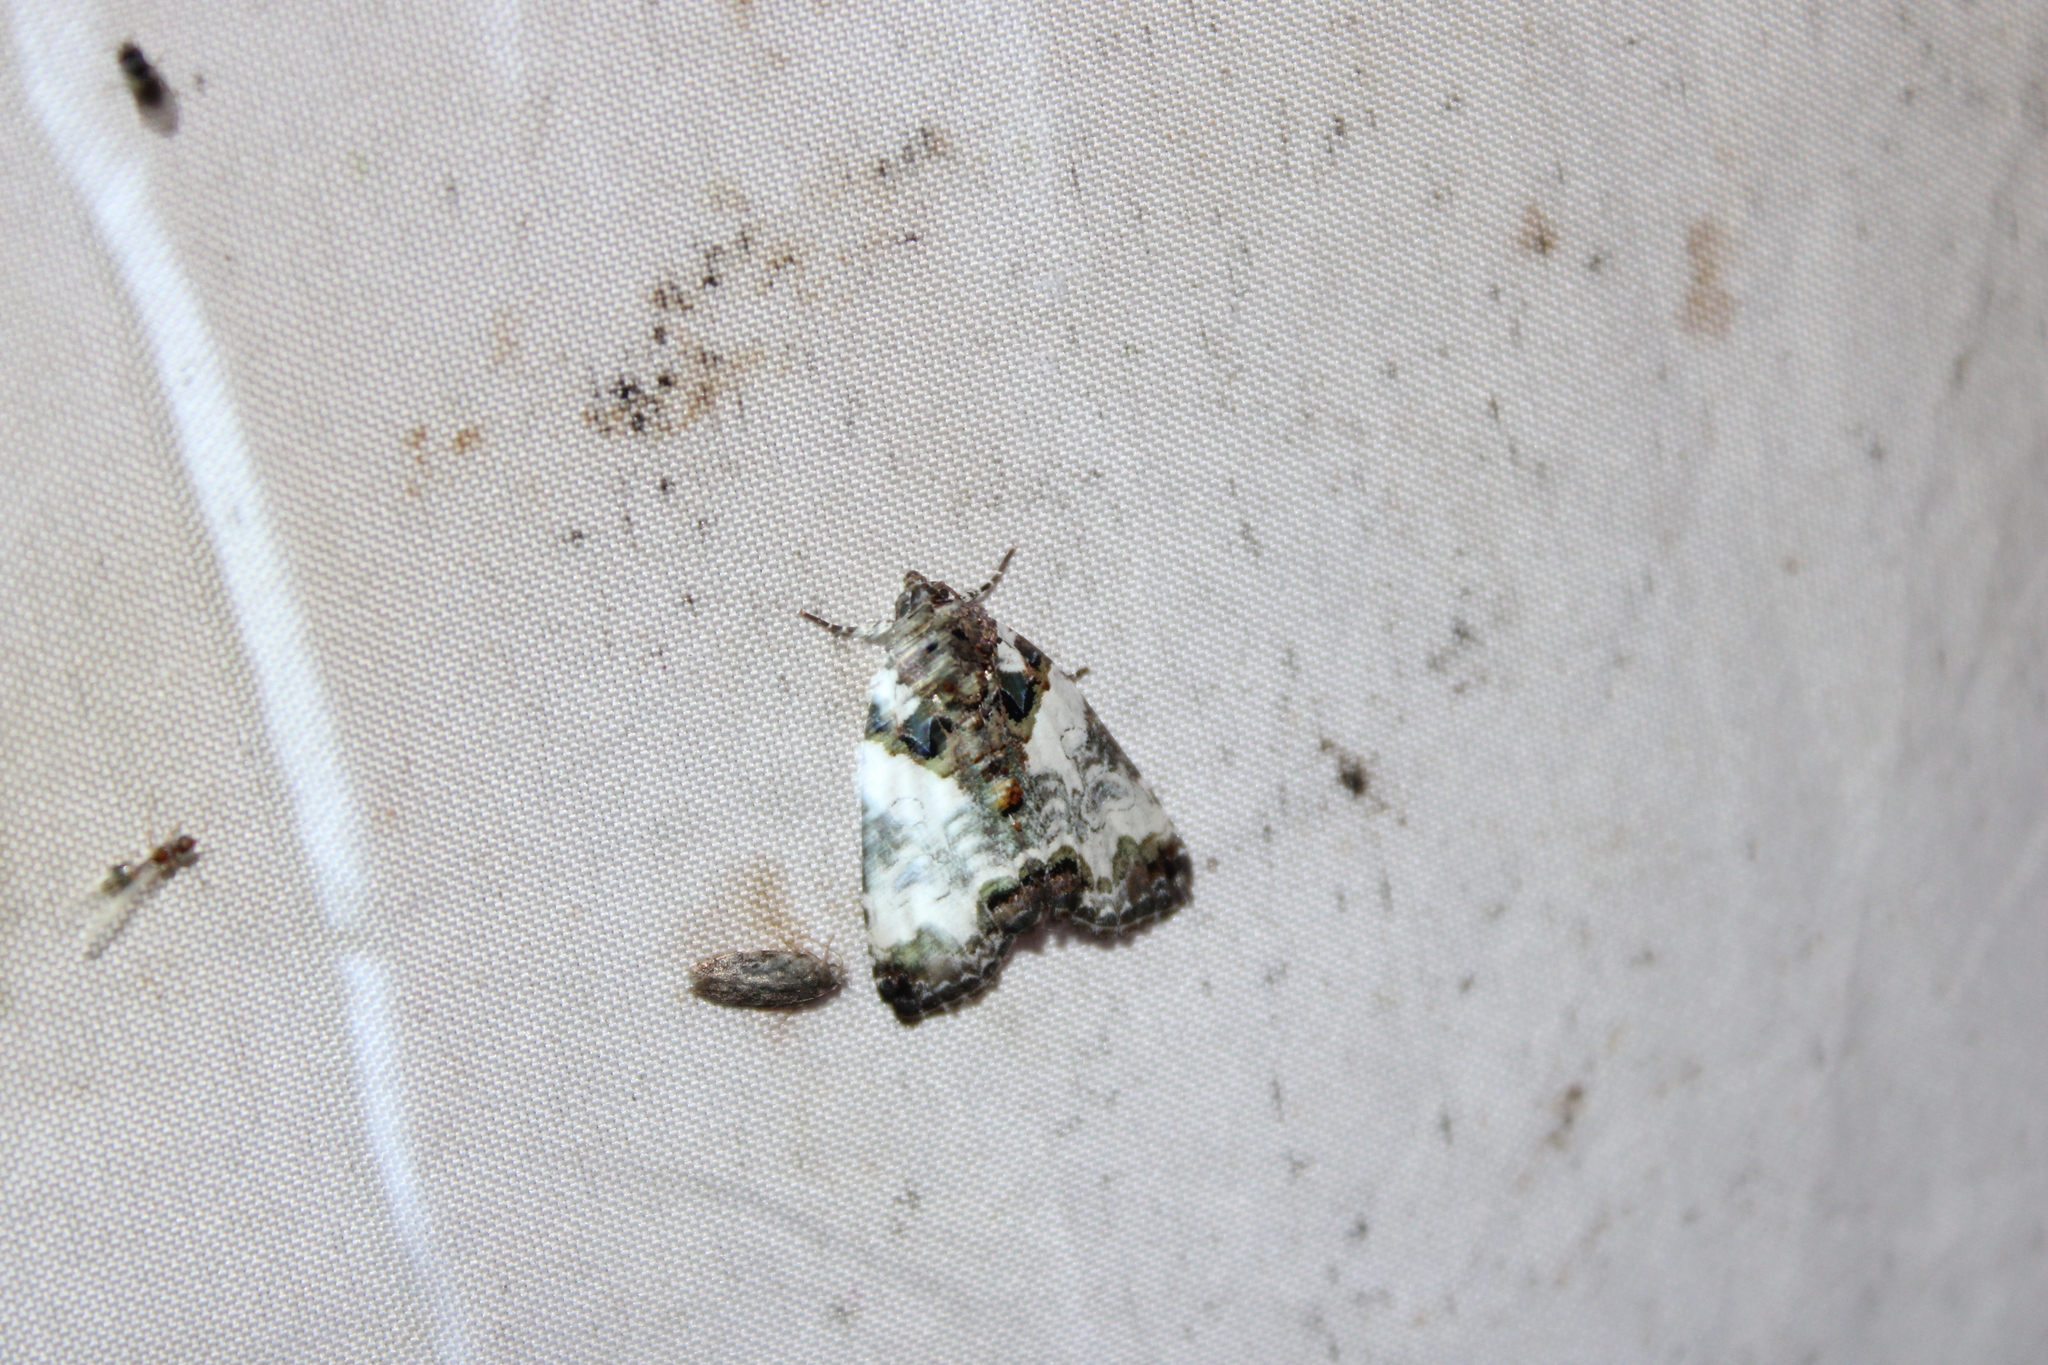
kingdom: Animalia
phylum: Arthropoda
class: Insecta
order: Lepidoptera
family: Noctuidae
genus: Cerma
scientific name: Cerma cerintha
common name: Tufted bird-dropping moth
